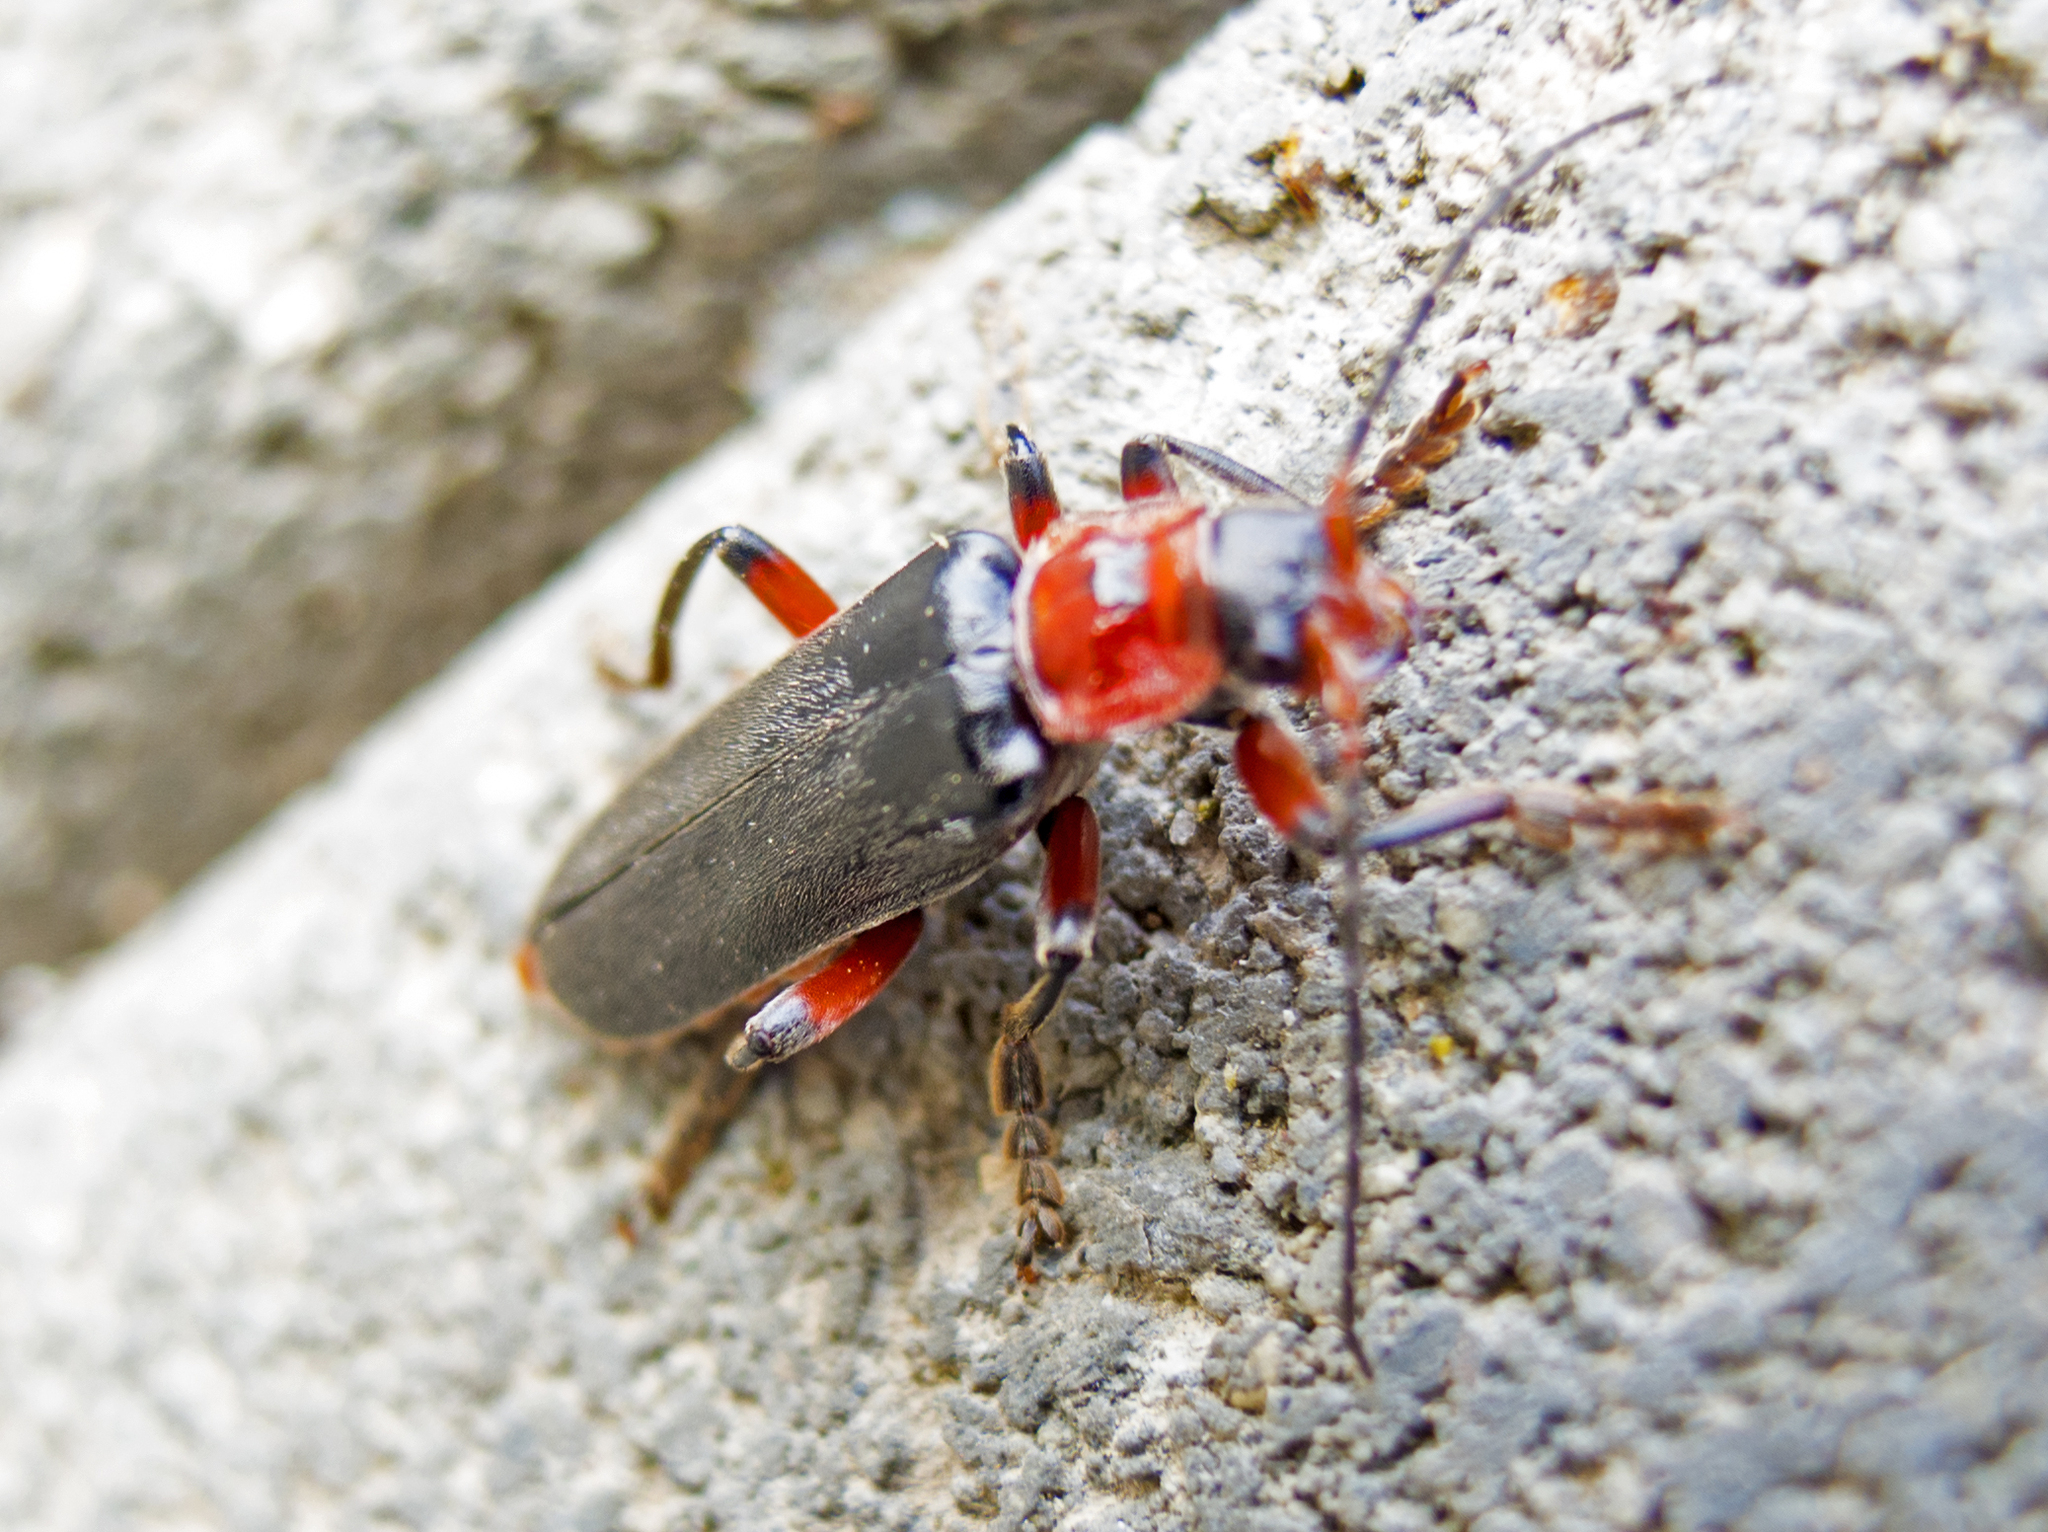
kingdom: Animalia
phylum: Arthropoda
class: Insecta
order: Coleoptera
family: Cantharidae
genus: Cantharis
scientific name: Cantharis rustica
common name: Soldier beetle
